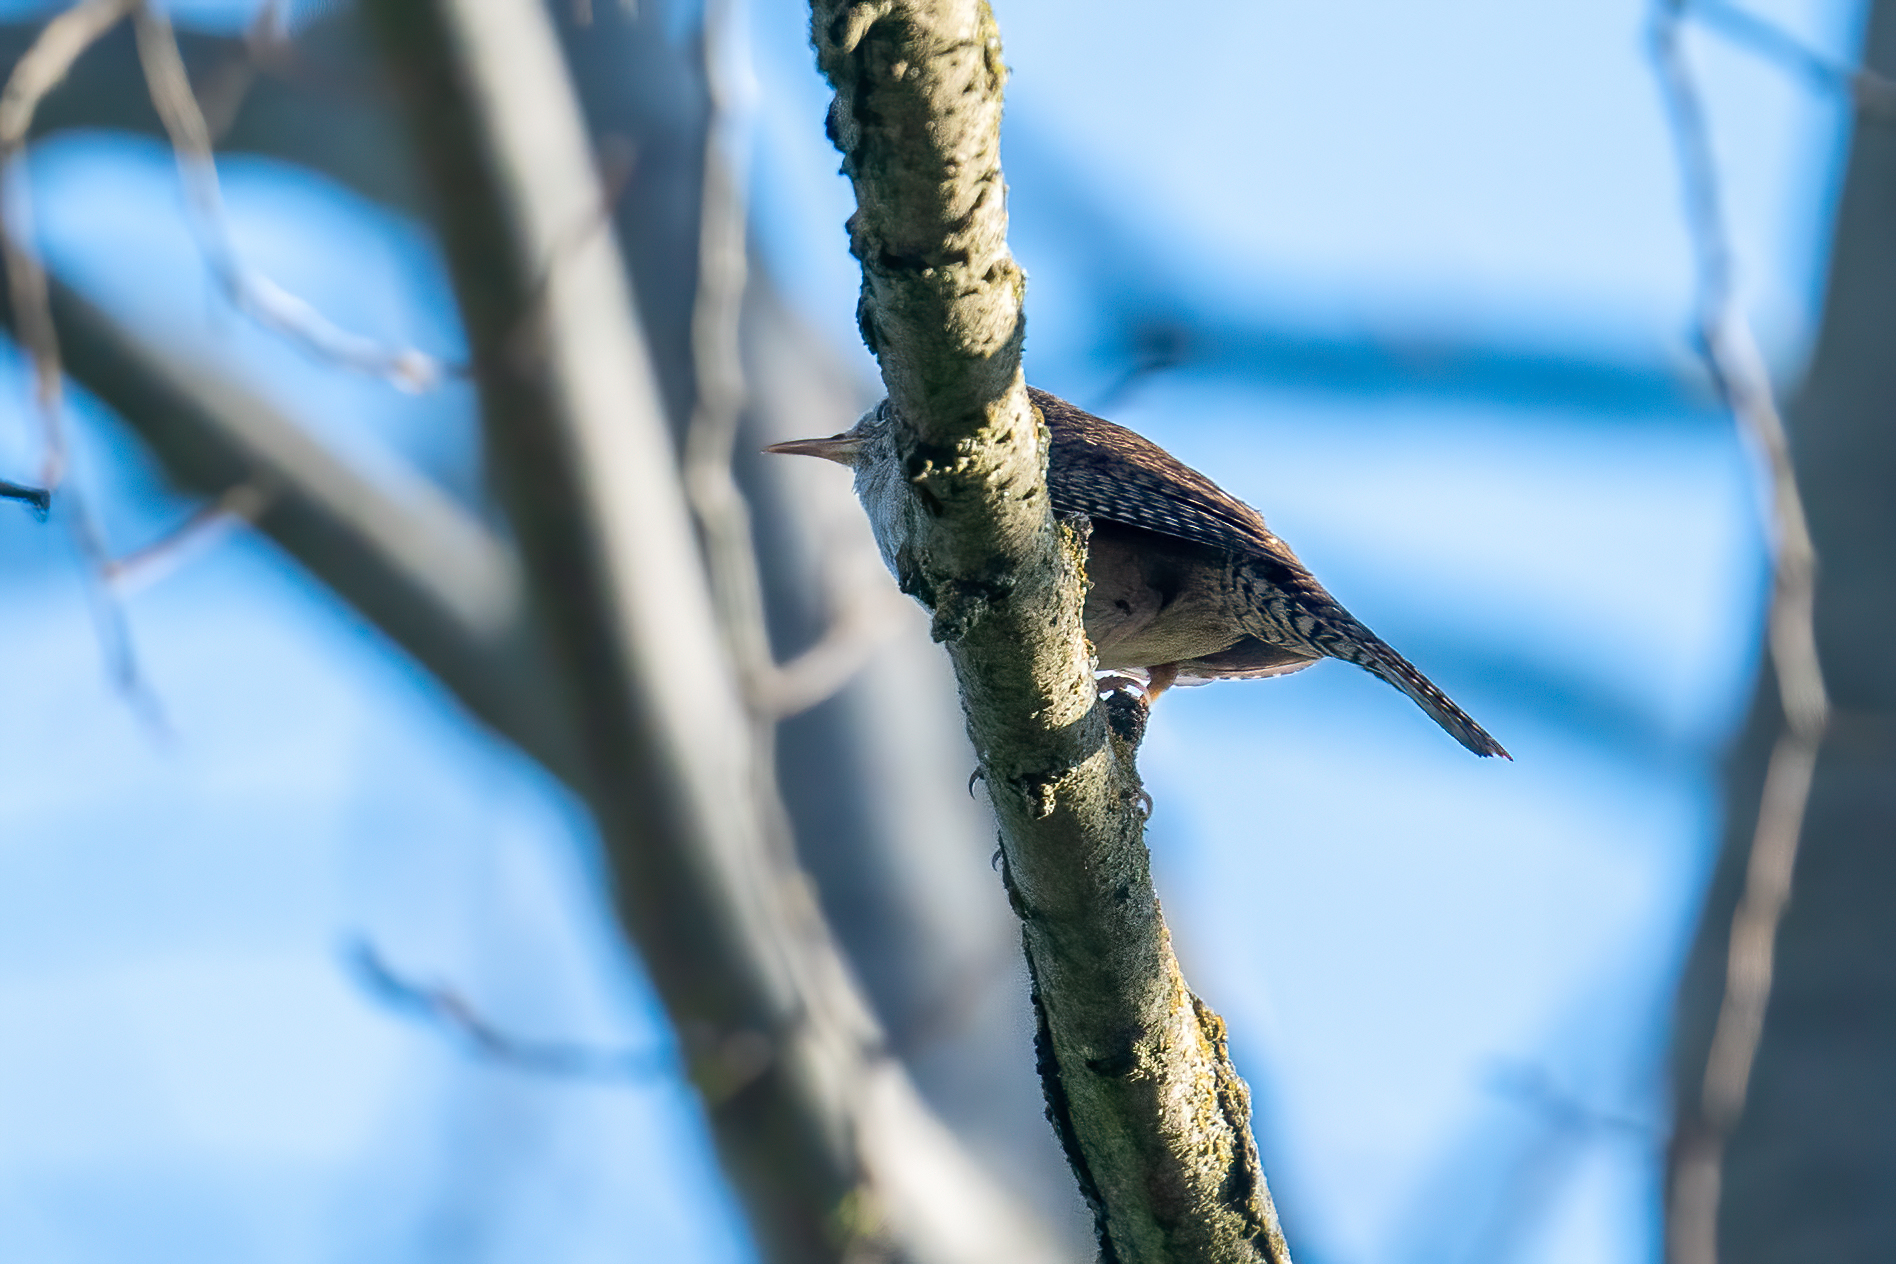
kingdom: Animalia
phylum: Chordata
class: Aves
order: Passeriformes
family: Troglodytidae
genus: Troglodytes
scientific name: Troglodytes aedon
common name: House wren
